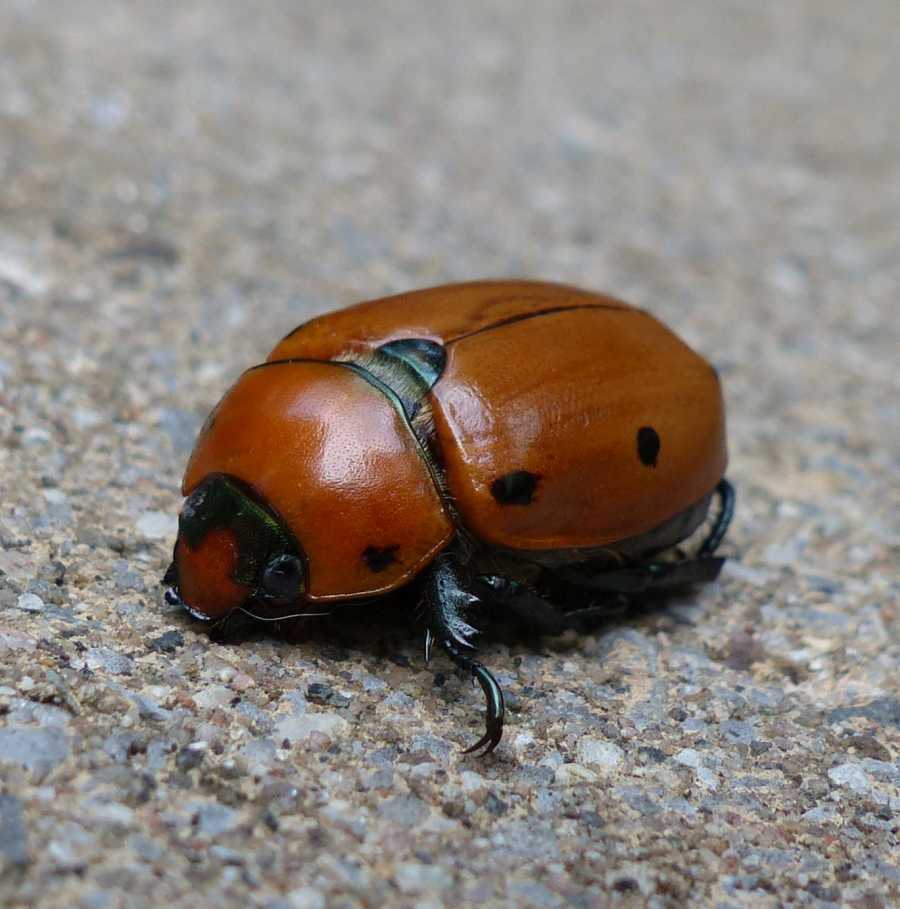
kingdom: Animalia
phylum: Arthropoda
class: Insecta
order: Coleoptera
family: Scarabaeidae
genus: Pelidnota
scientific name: Pelidnota punctata
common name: Grapevine beetle
